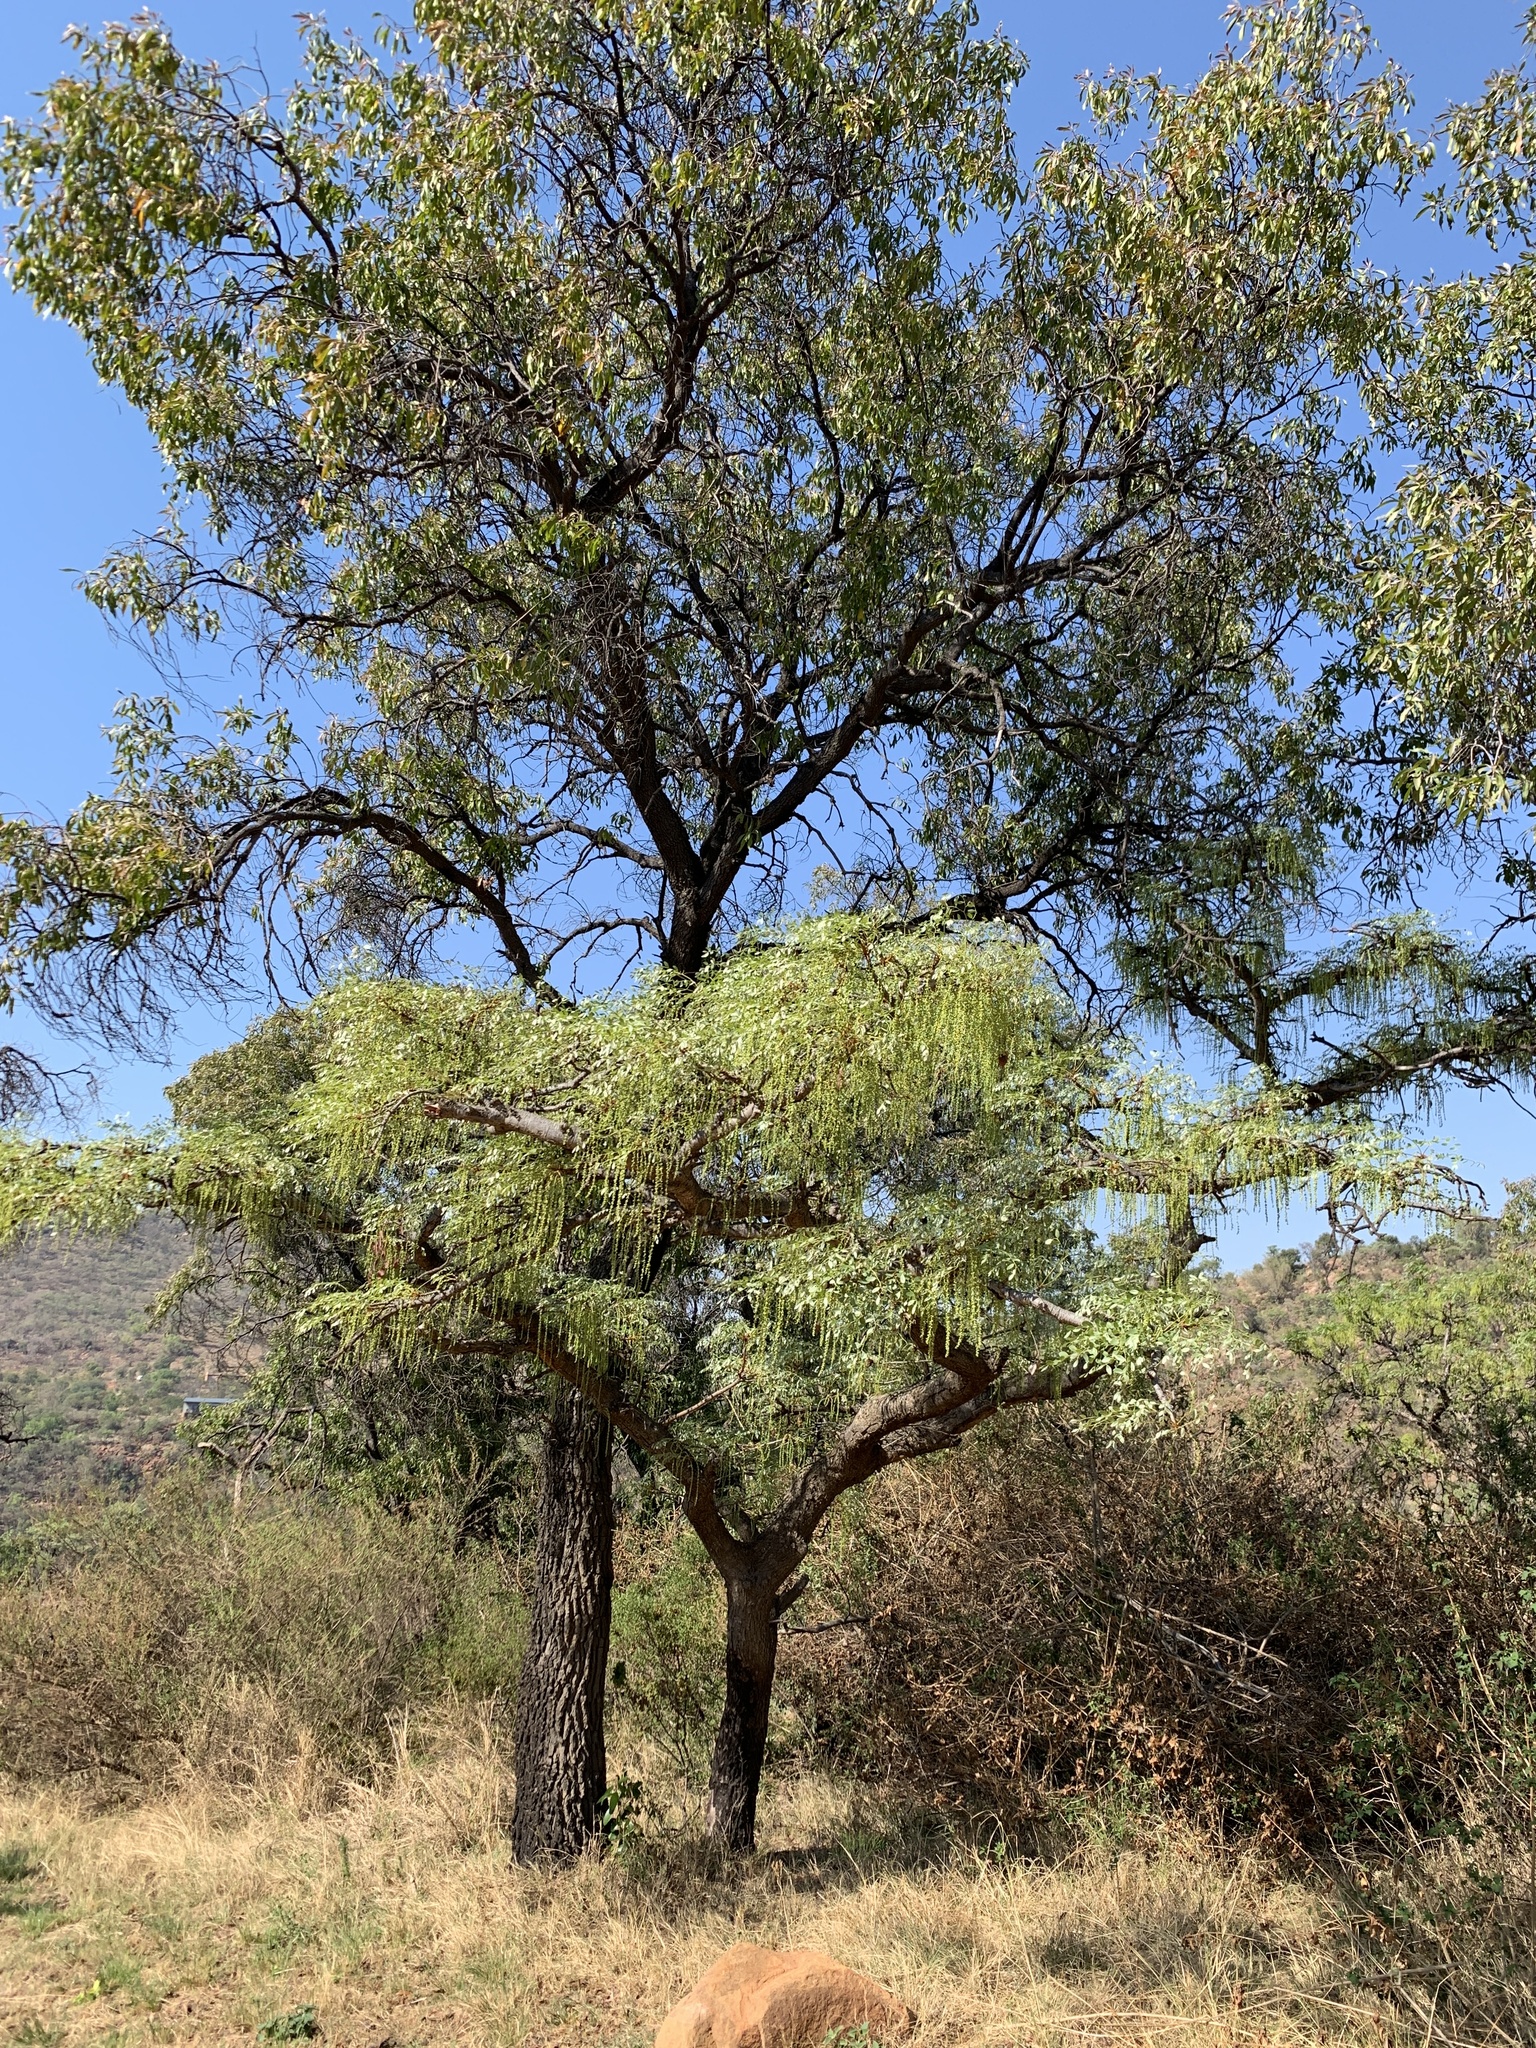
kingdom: Plantae
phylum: Tracheophyta
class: Magnoliopsida
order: Fabales
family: Fabaceae
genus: Burkea
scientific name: Burkea africana
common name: Mkalati tree
